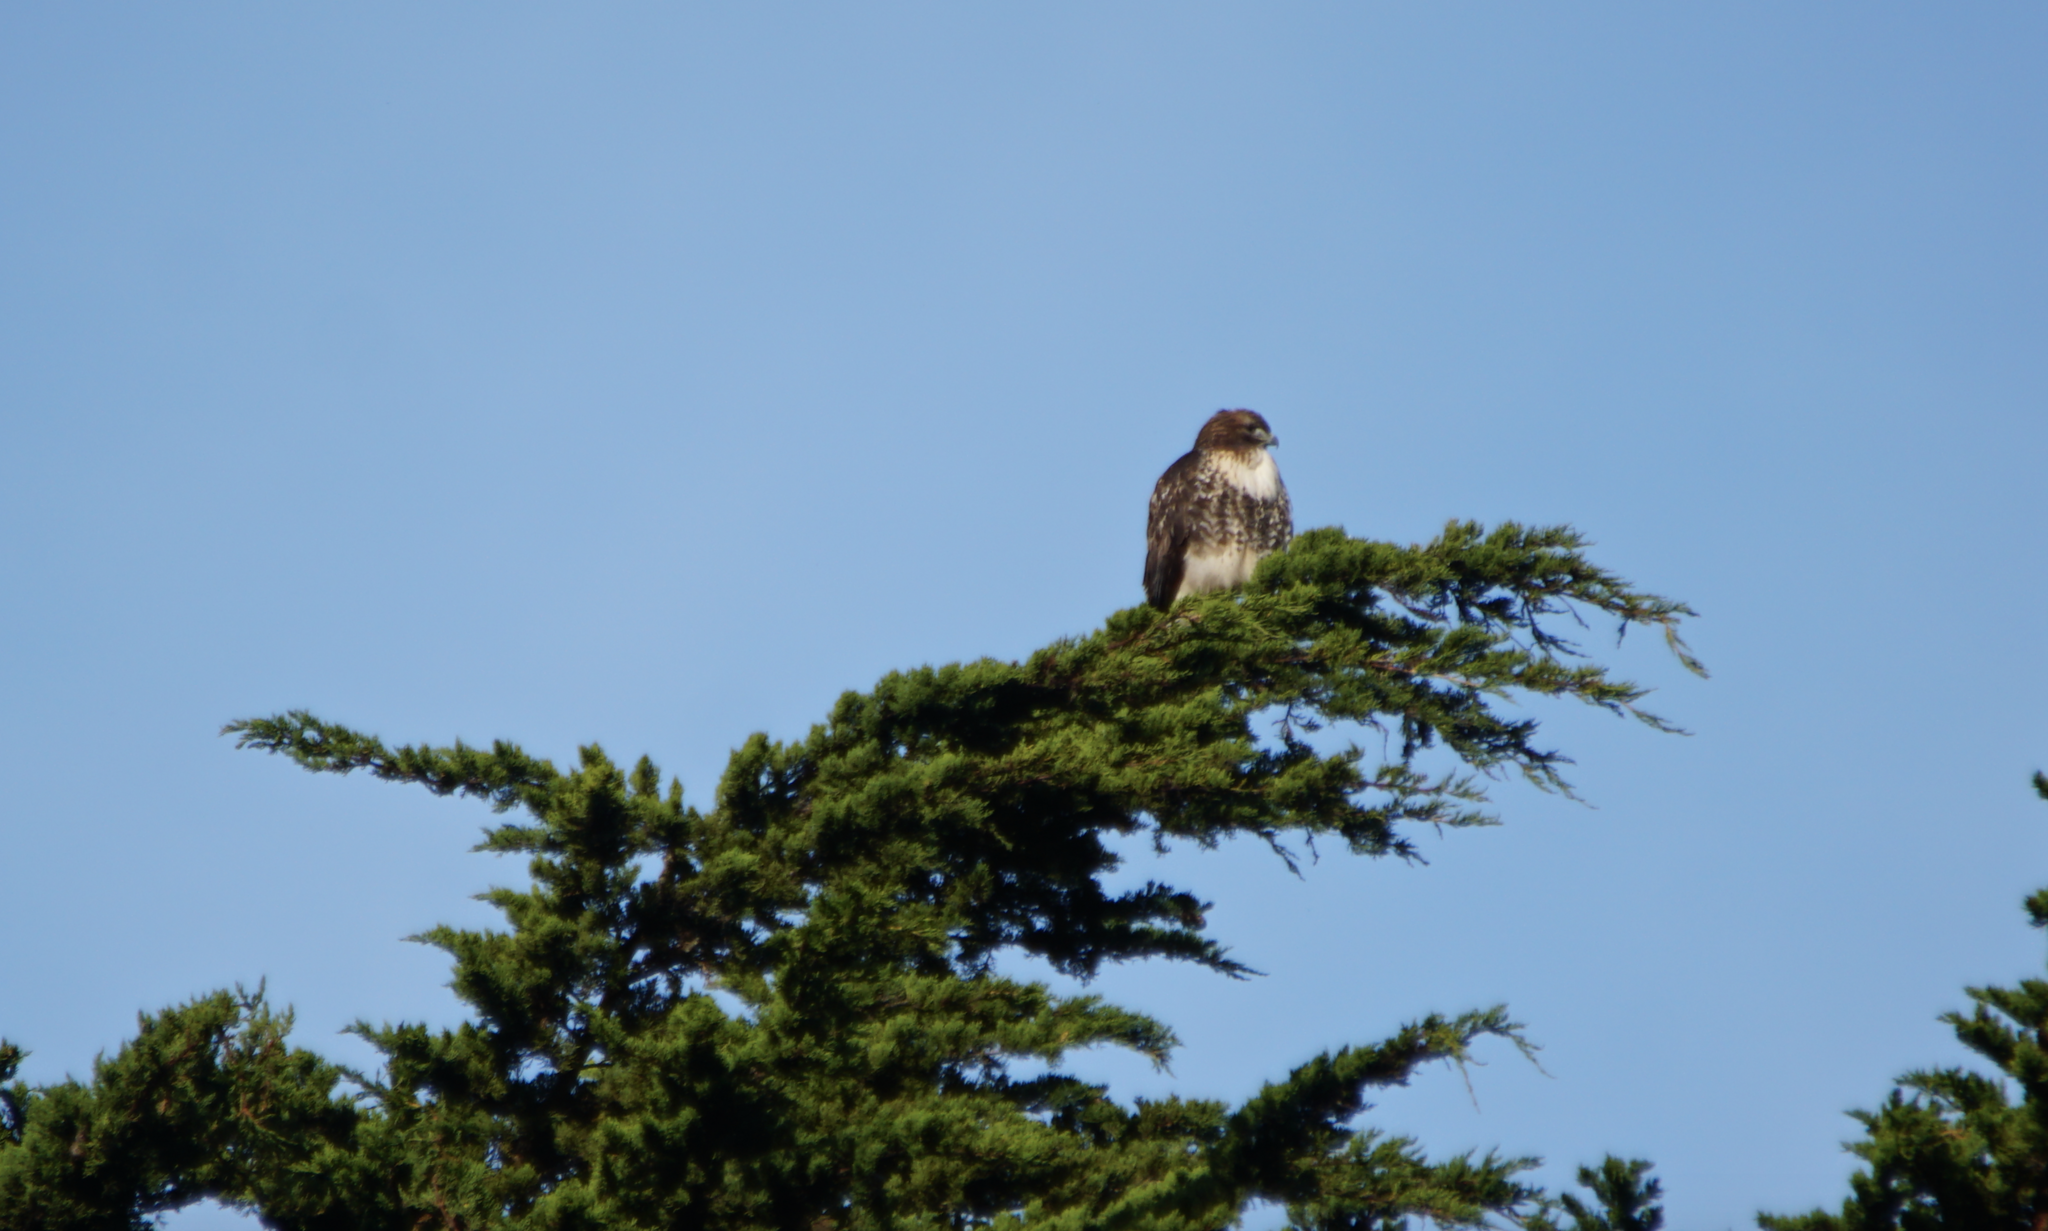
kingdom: Animalia
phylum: Chordata
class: Aves
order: Accipitriformes
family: Accipitridae
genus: Buteo
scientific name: Buteo jamaicensis
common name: Red-tailed hawk
